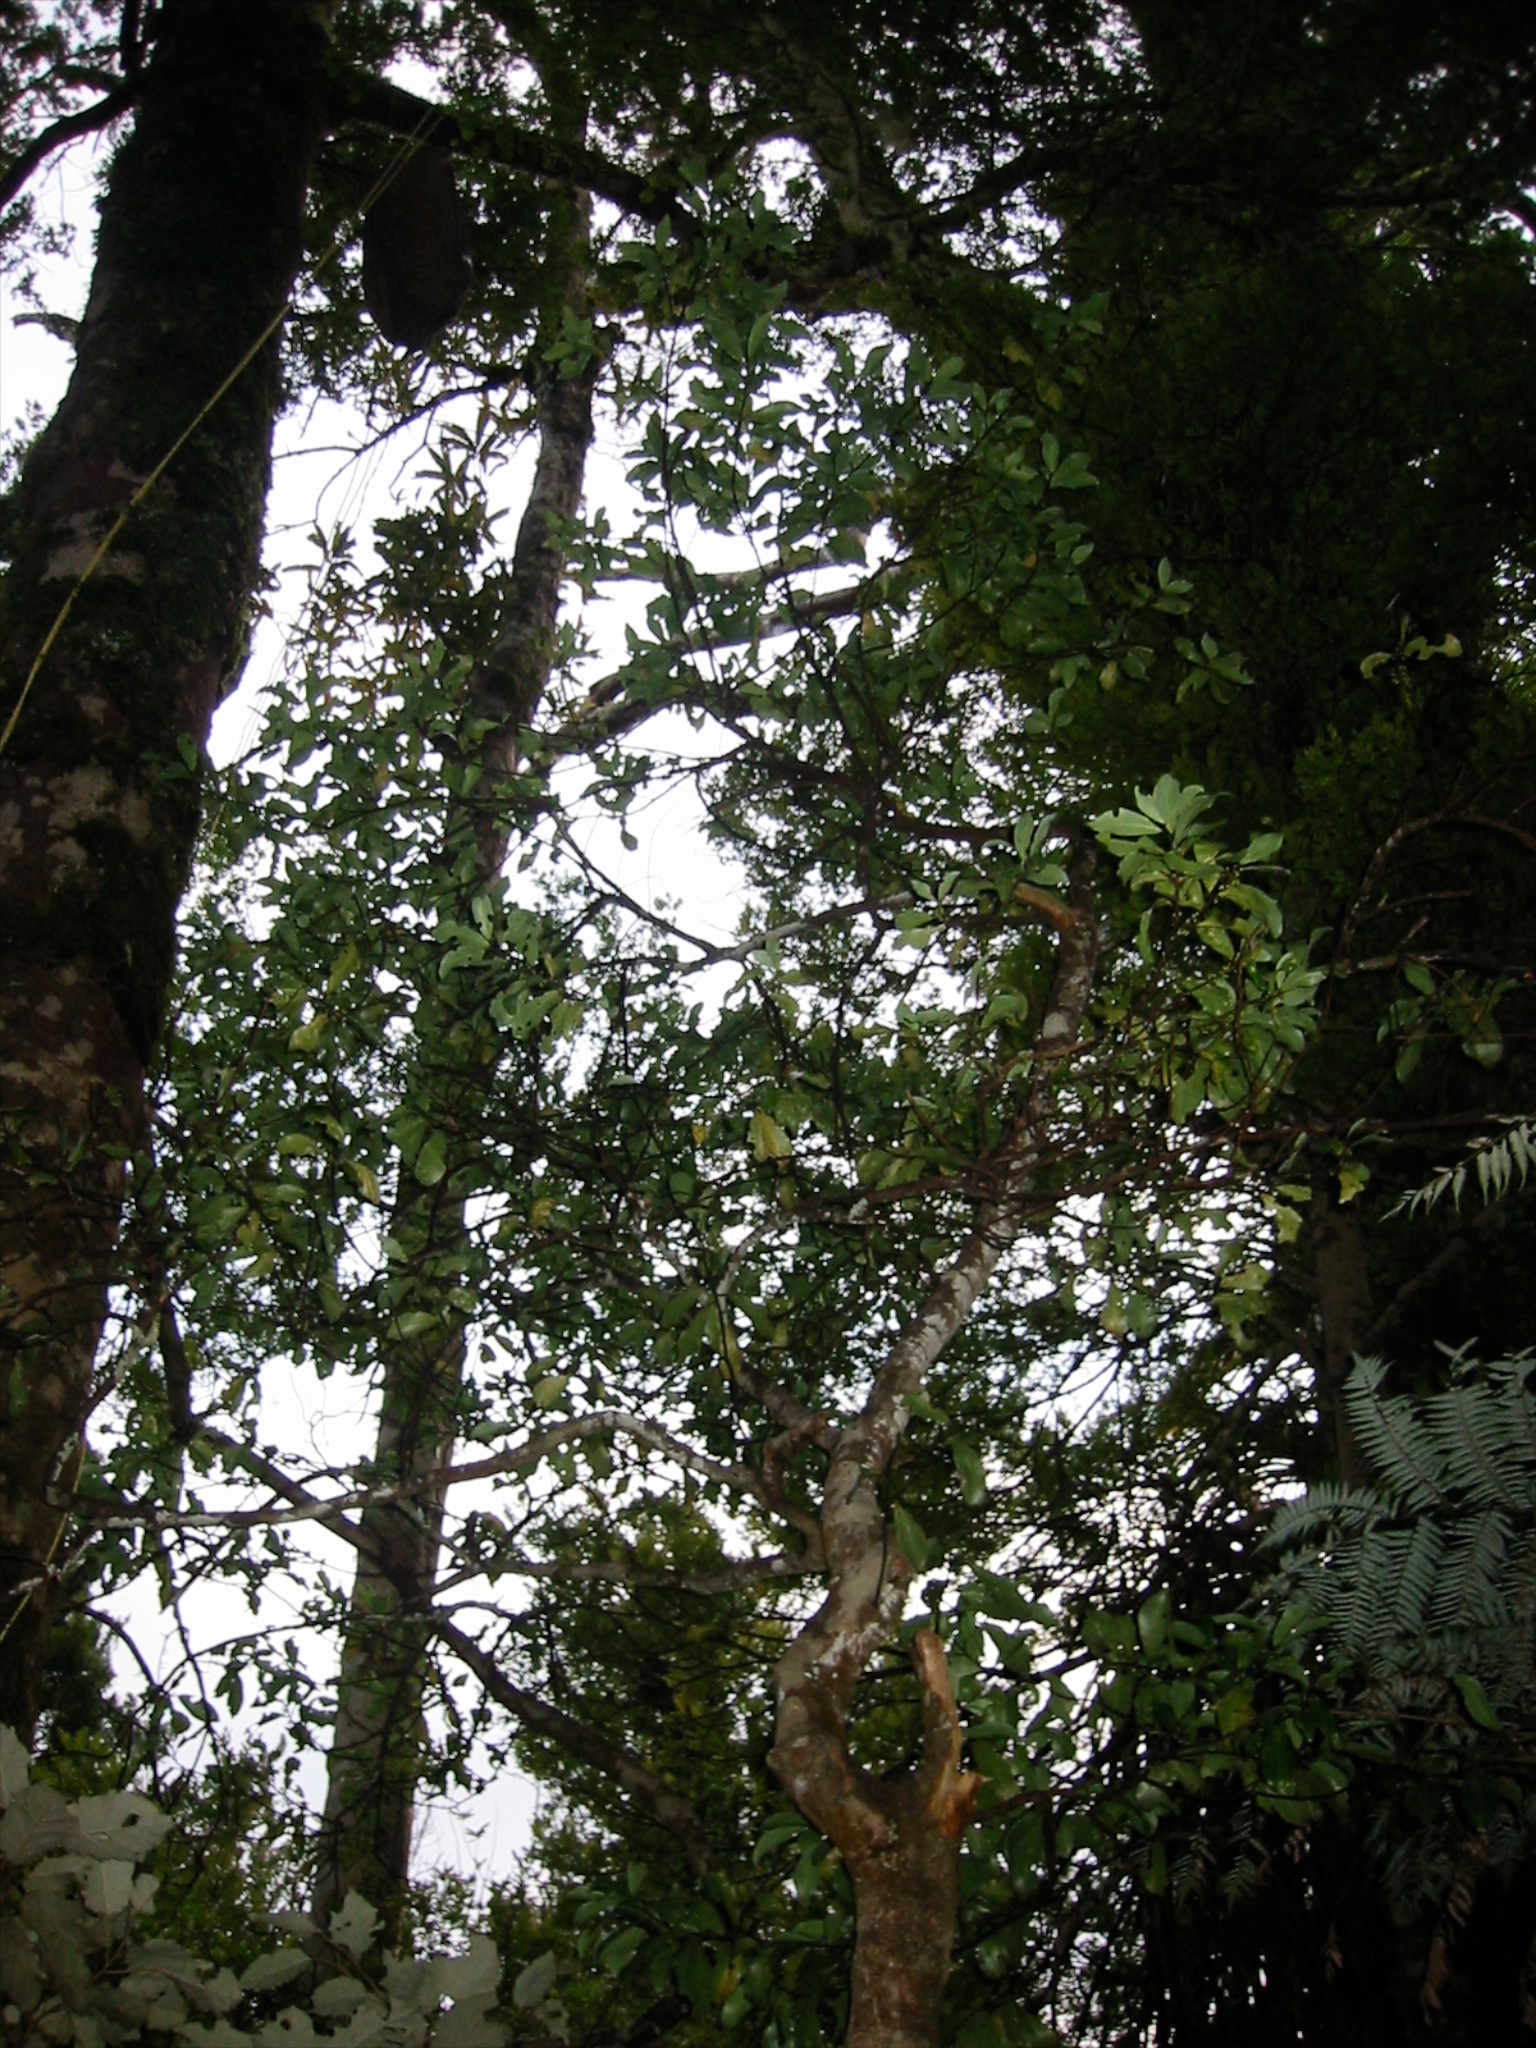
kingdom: Plantae
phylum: Tracheophyta
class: Magnoliopsida
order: Canellales
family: Winteraceae
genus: Pseudowintera
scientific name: Pseudowintera axillaris
